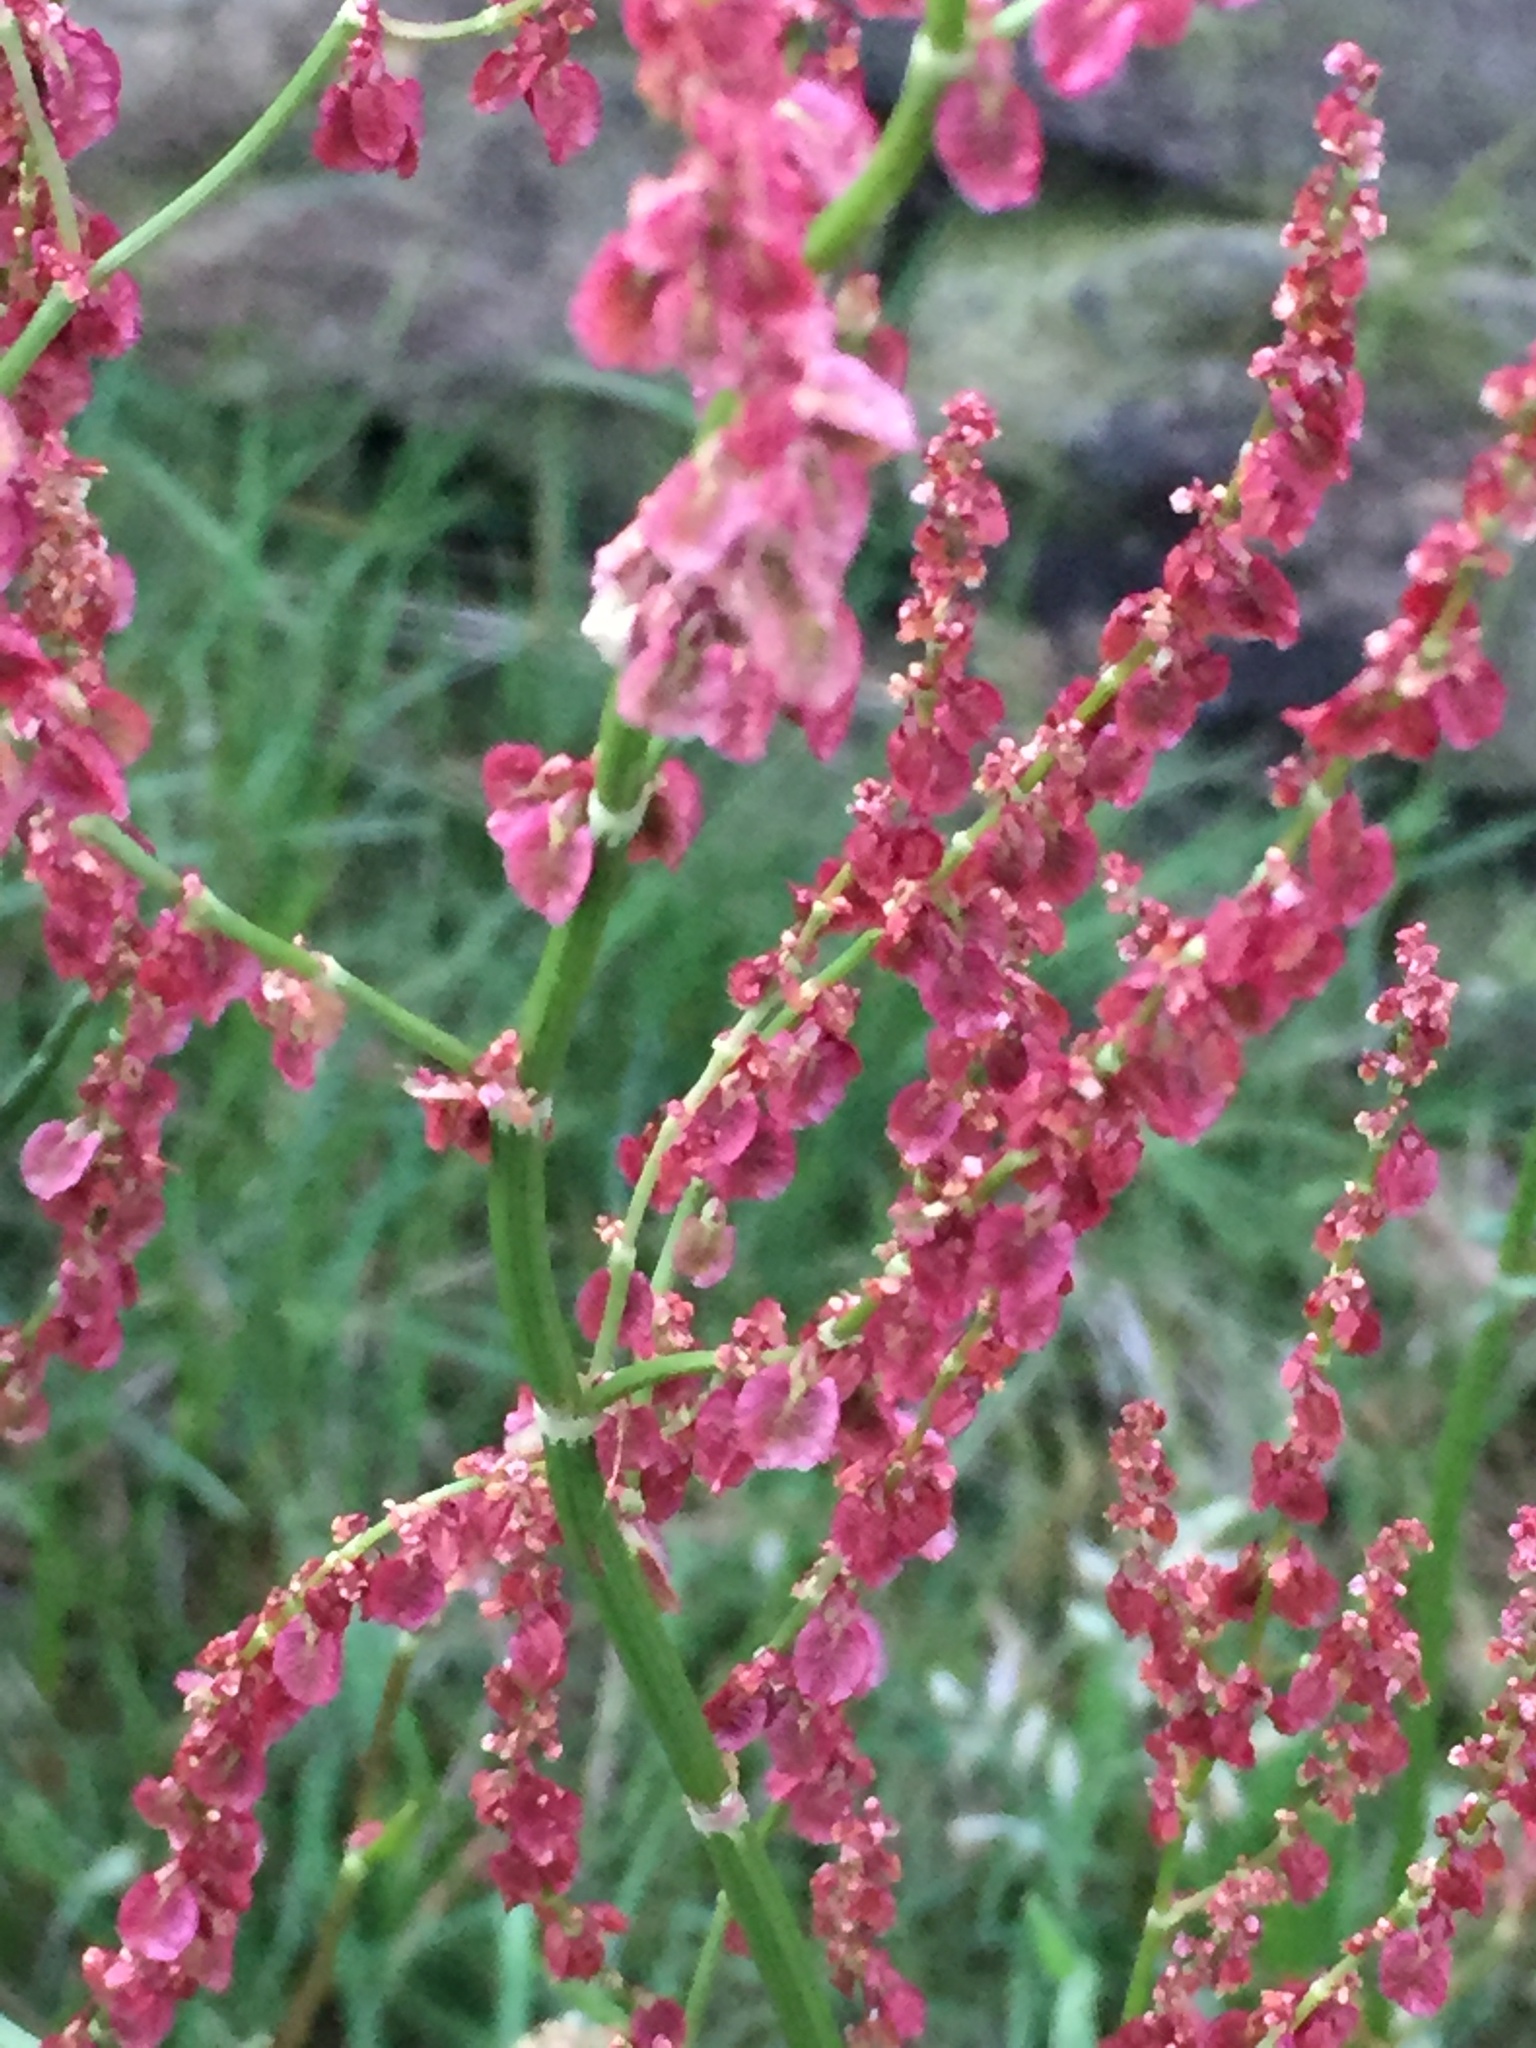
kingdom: Plantae
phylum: Tracheophyta
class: Magnoliopsida
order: Caryophyllales
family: Polygonaceae
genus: Rumex
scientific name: Rumex acetosa
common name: Garden sorrel
